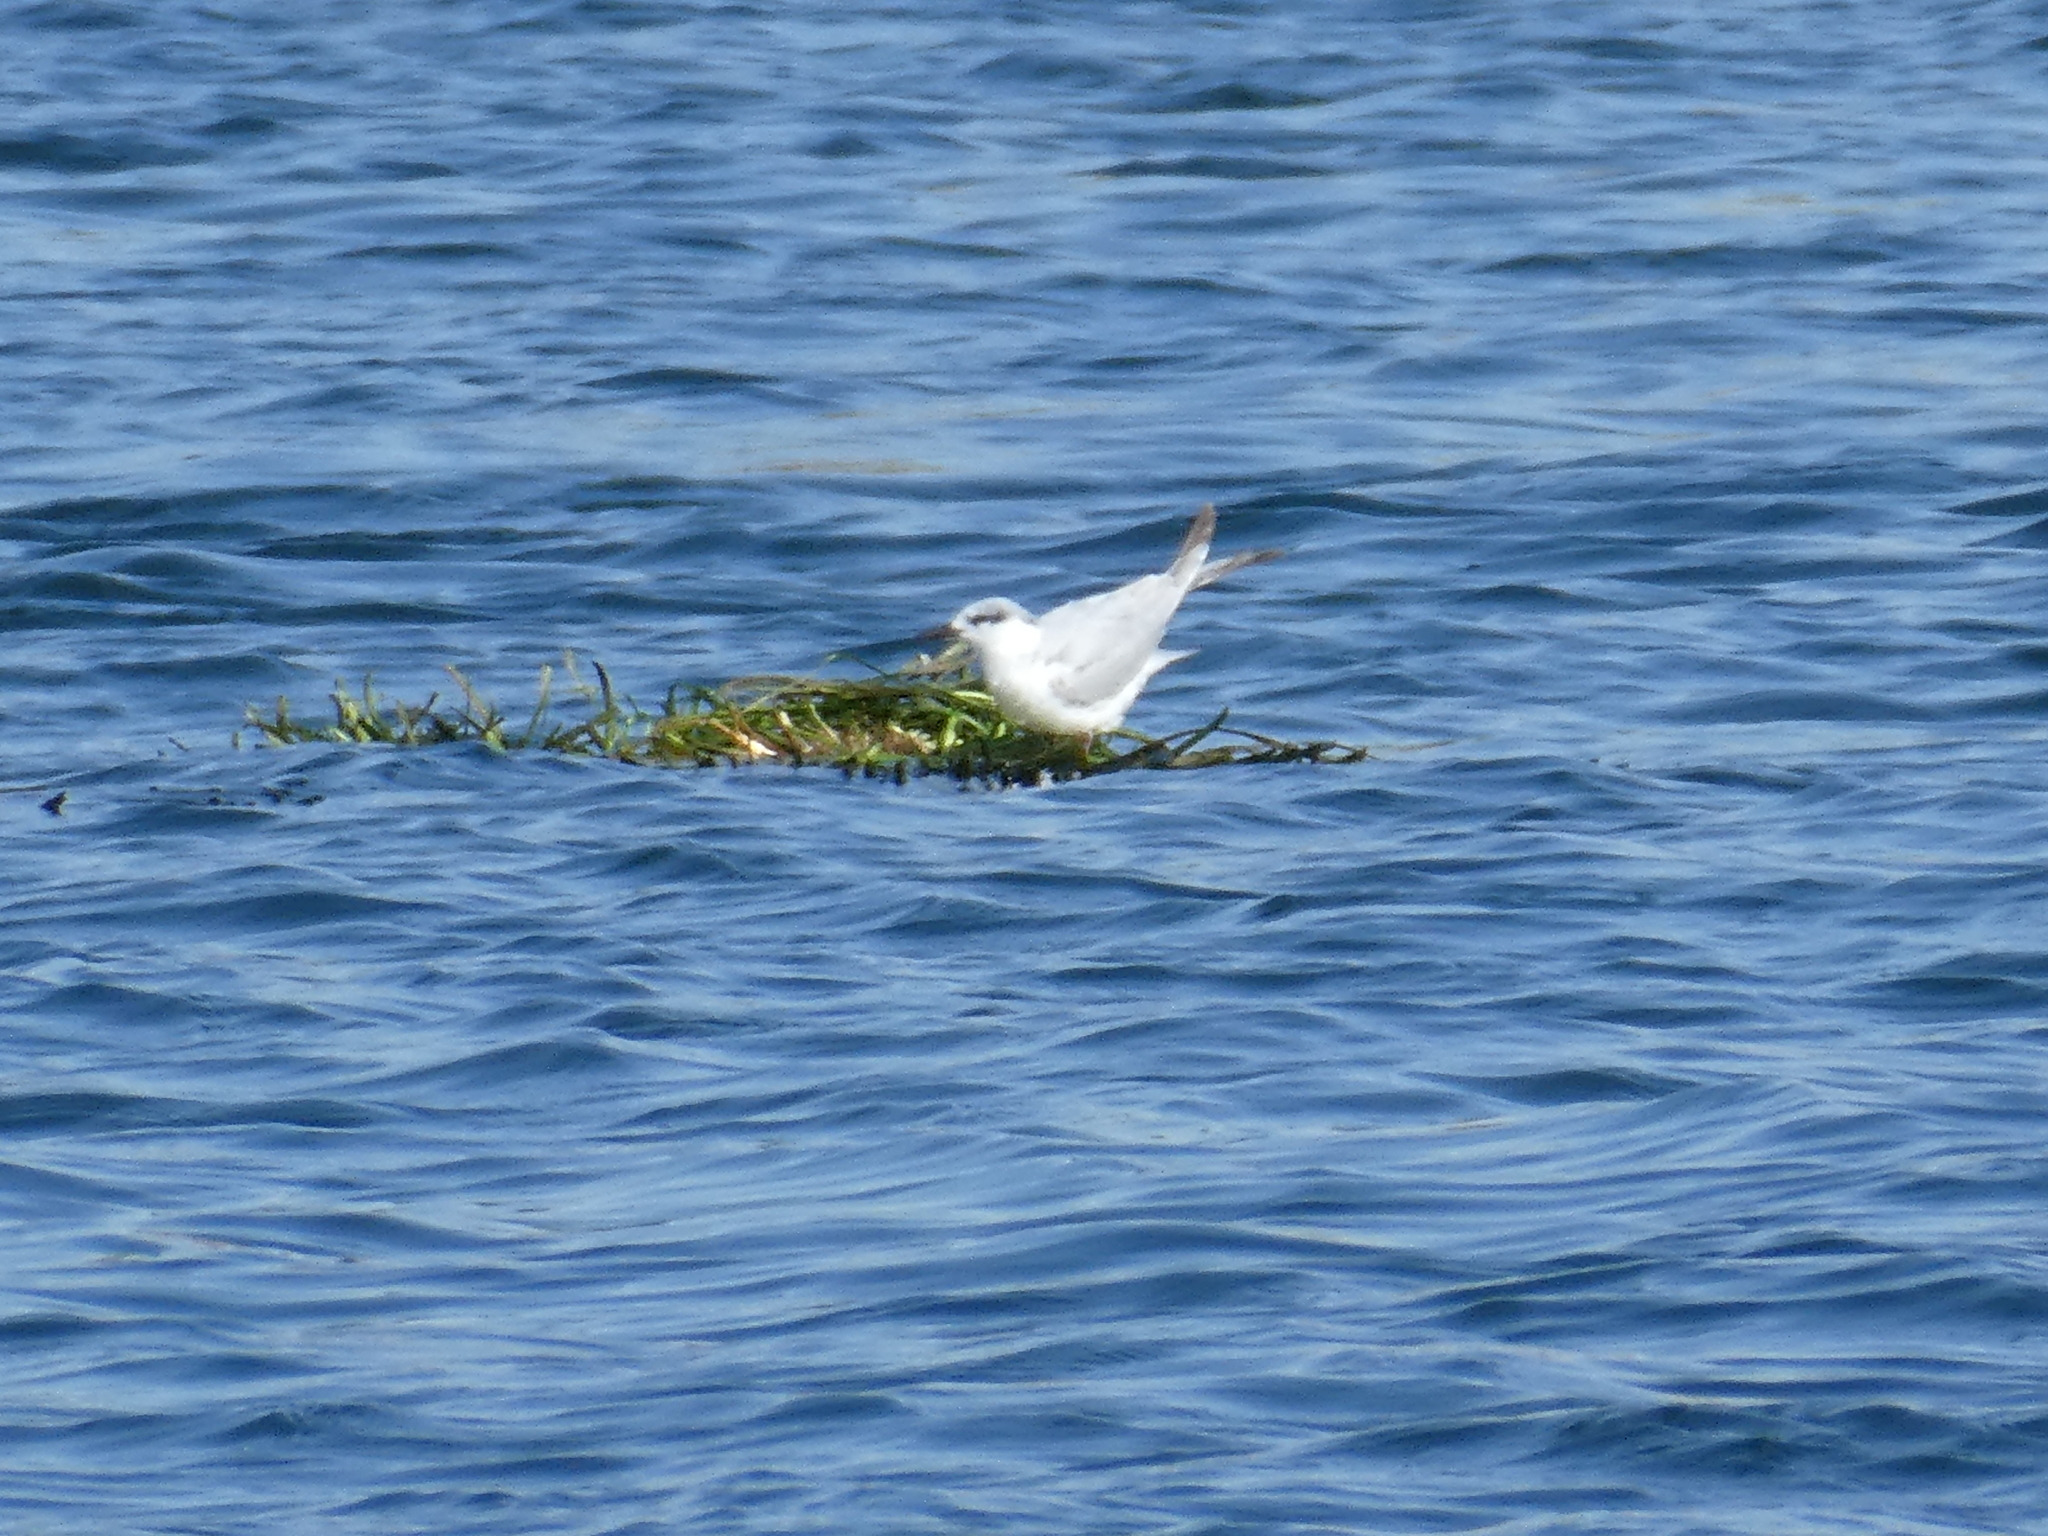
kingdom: Animalia
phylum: Chordata
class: Aves
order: Charadriiformes
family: Laridae
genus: Chlidonias
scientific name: Chlidonias hybrida
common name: Whiskered tern
